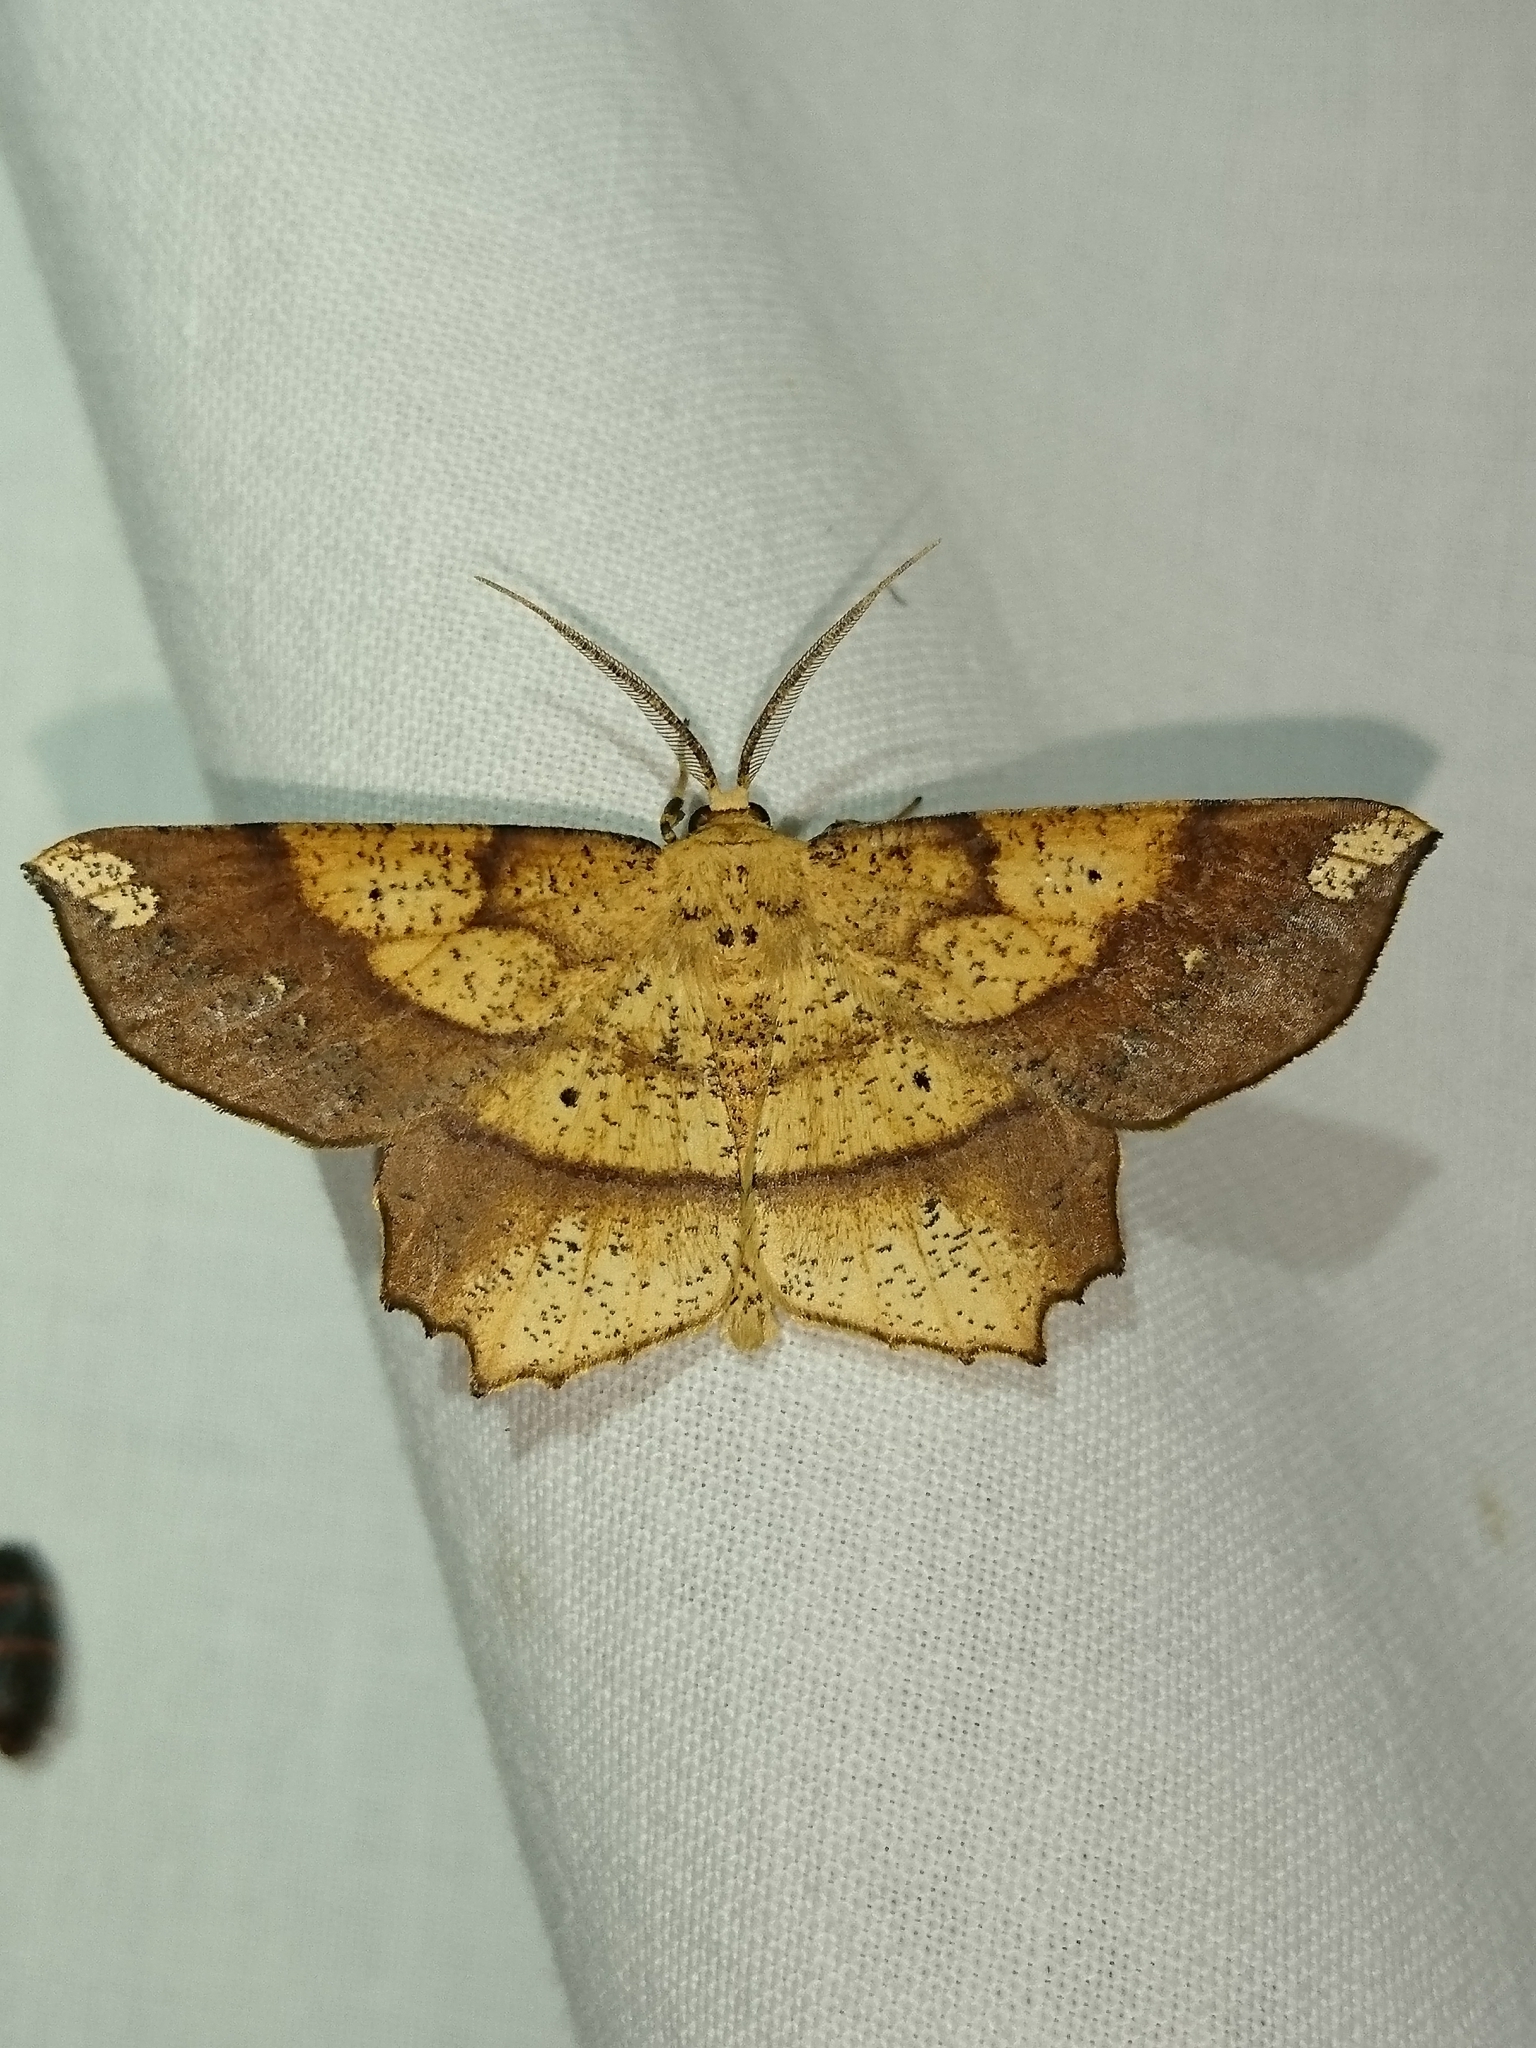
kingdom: Animalia
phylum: Arthropoda
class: Insecta
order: Lepidoptera
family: Geometridae
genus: Euchlaena
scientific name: Euchlaena amoenaria
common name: Deep yellow euchlaena
